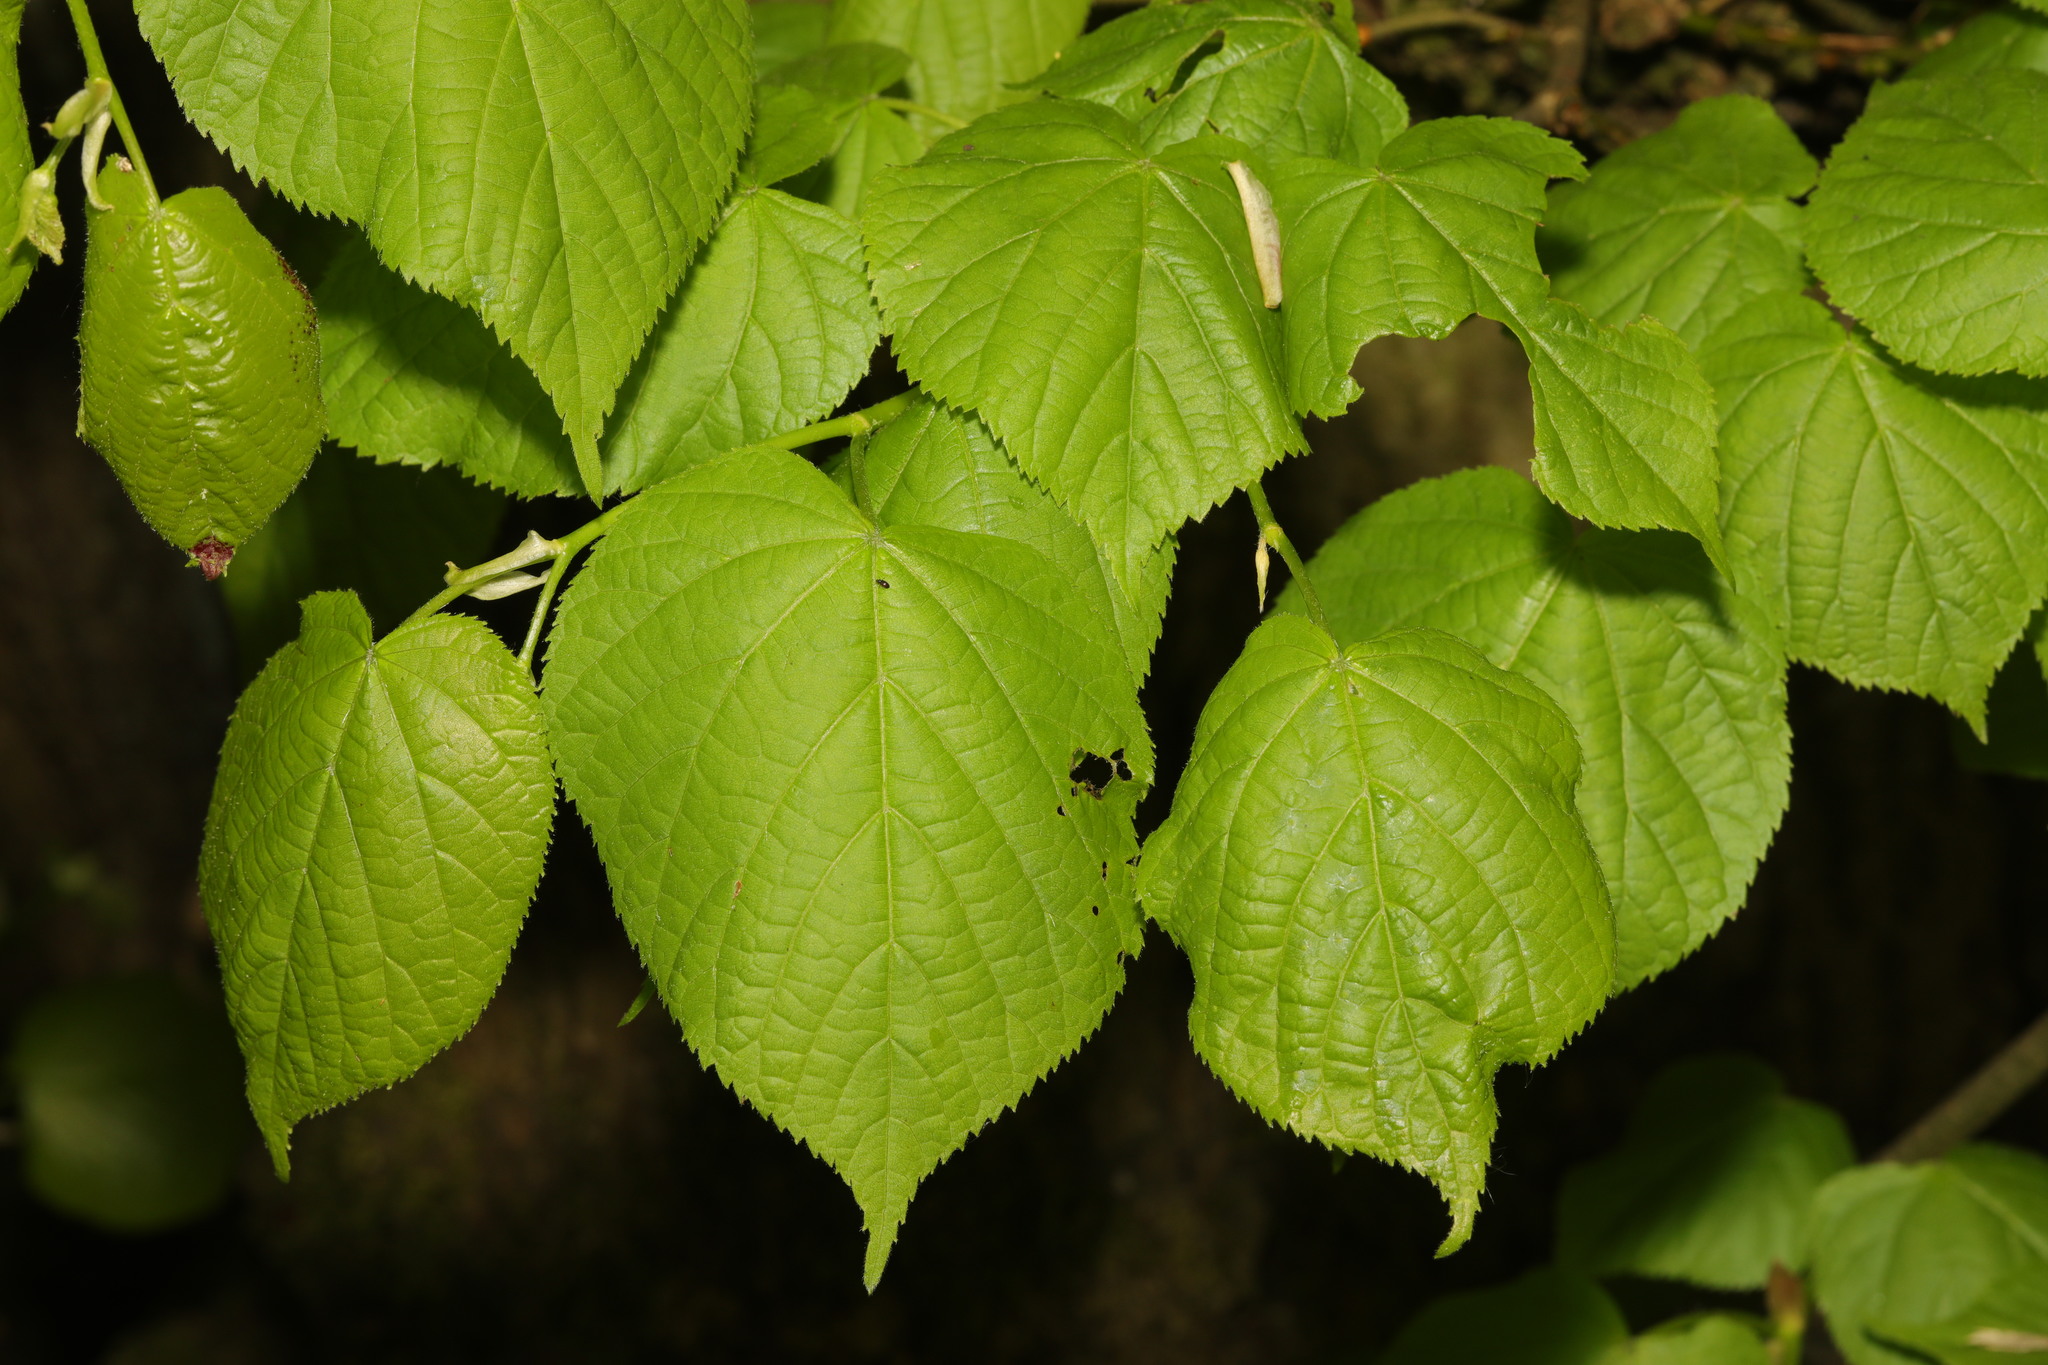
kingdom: Plantae
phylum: Tracheophyta
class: Magnoliopsida
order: Malvales
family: Malvaceae
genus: Tilia
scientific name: Tilia europaea
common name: European linden
